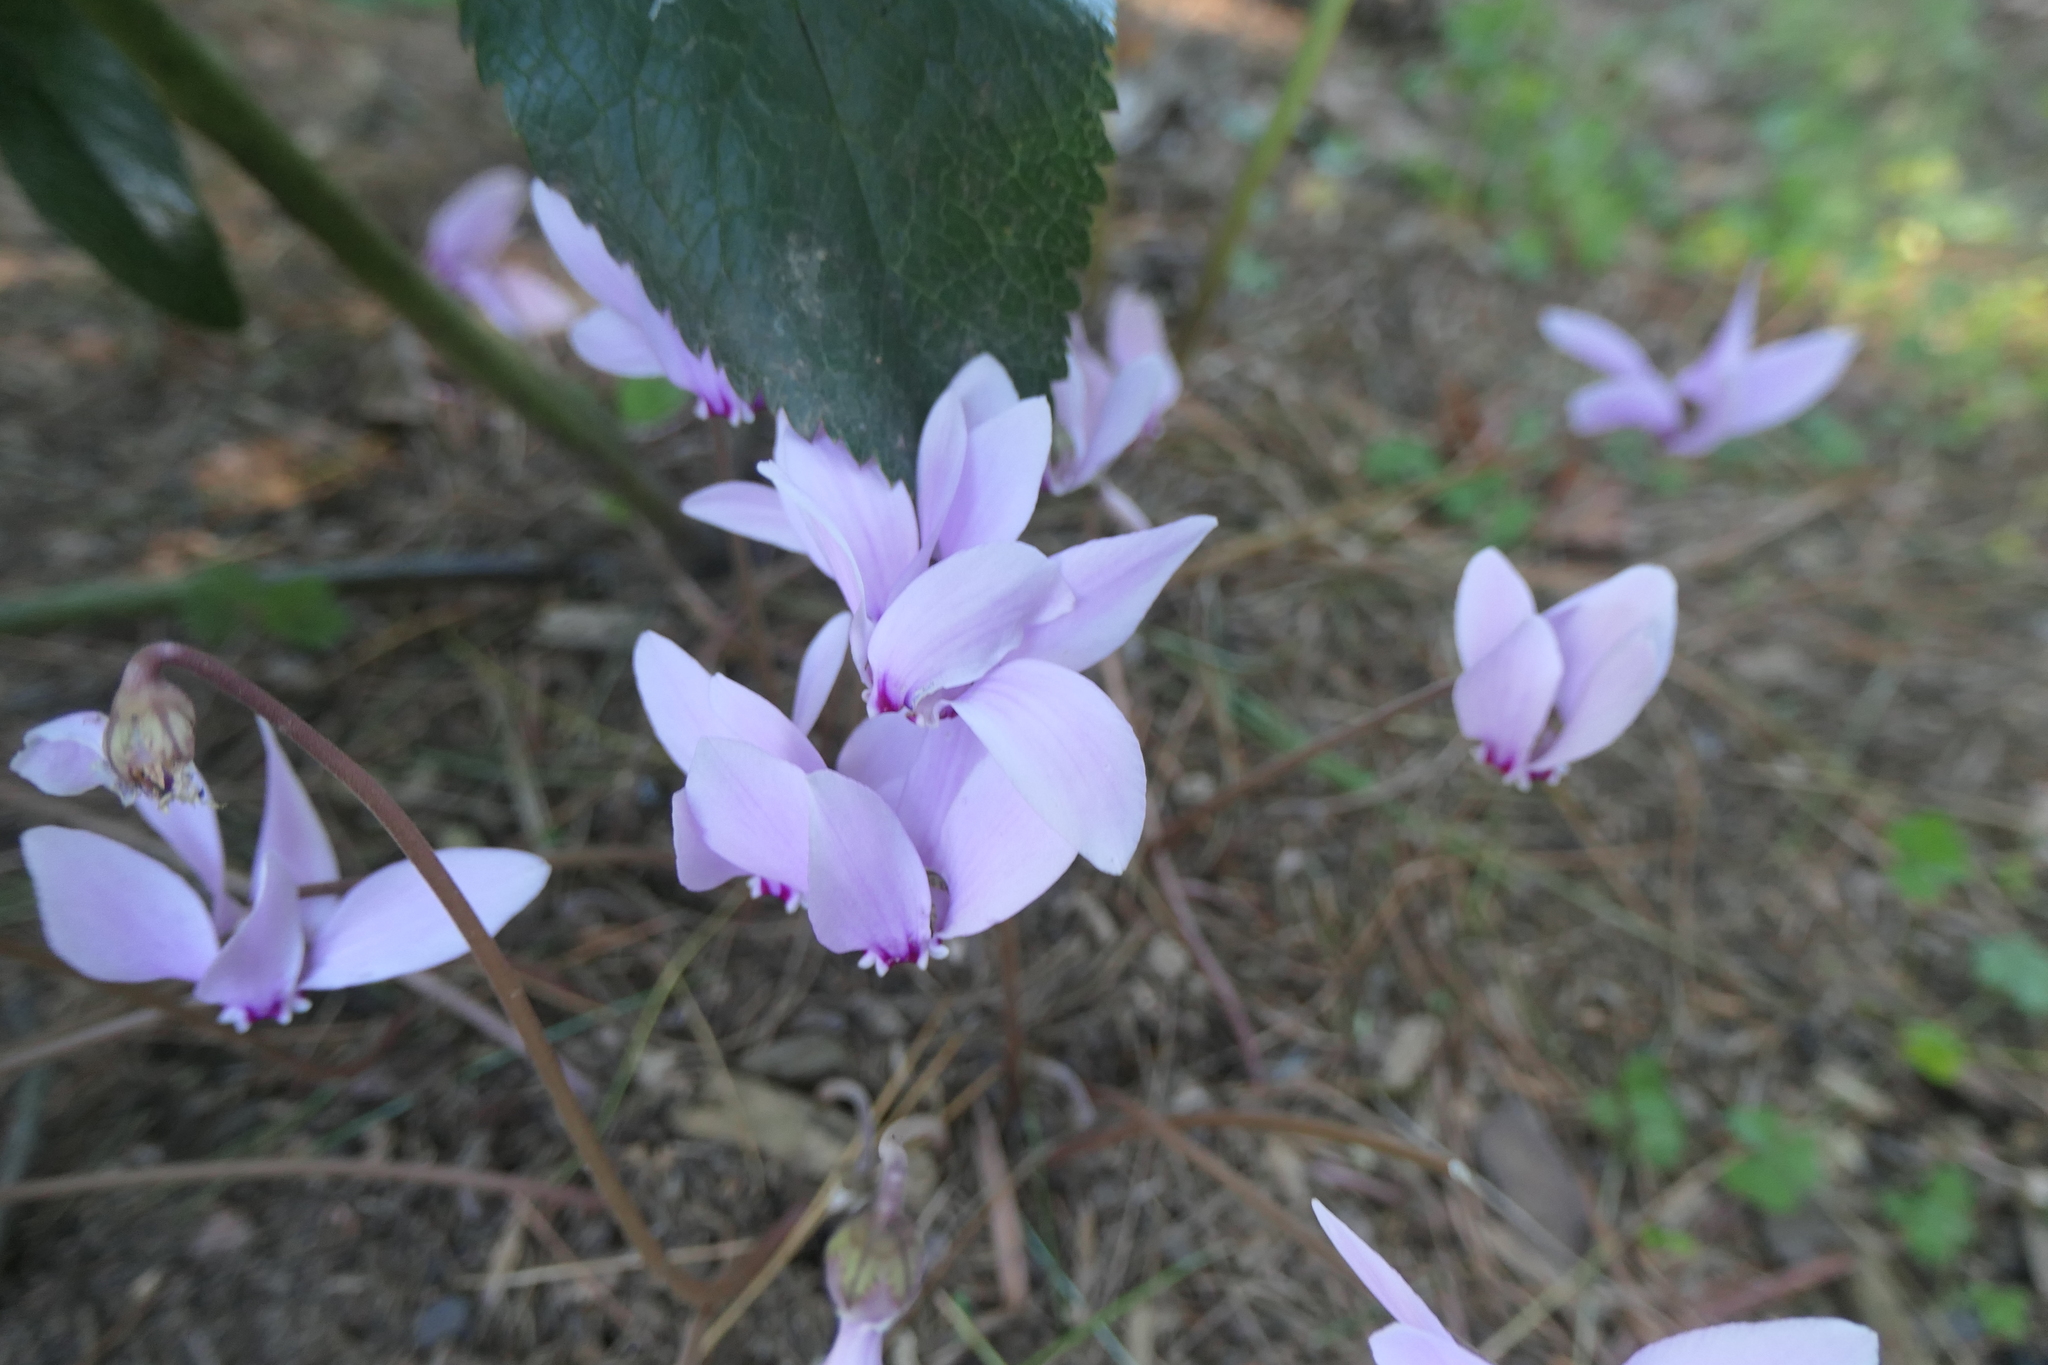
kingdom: Plantae
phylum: Tracheophyta
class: Magnoliopsida
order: Ericales
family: Primulaceae
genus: Cyclamen
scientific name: Cyclamen hederifolium
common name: Sowbread
